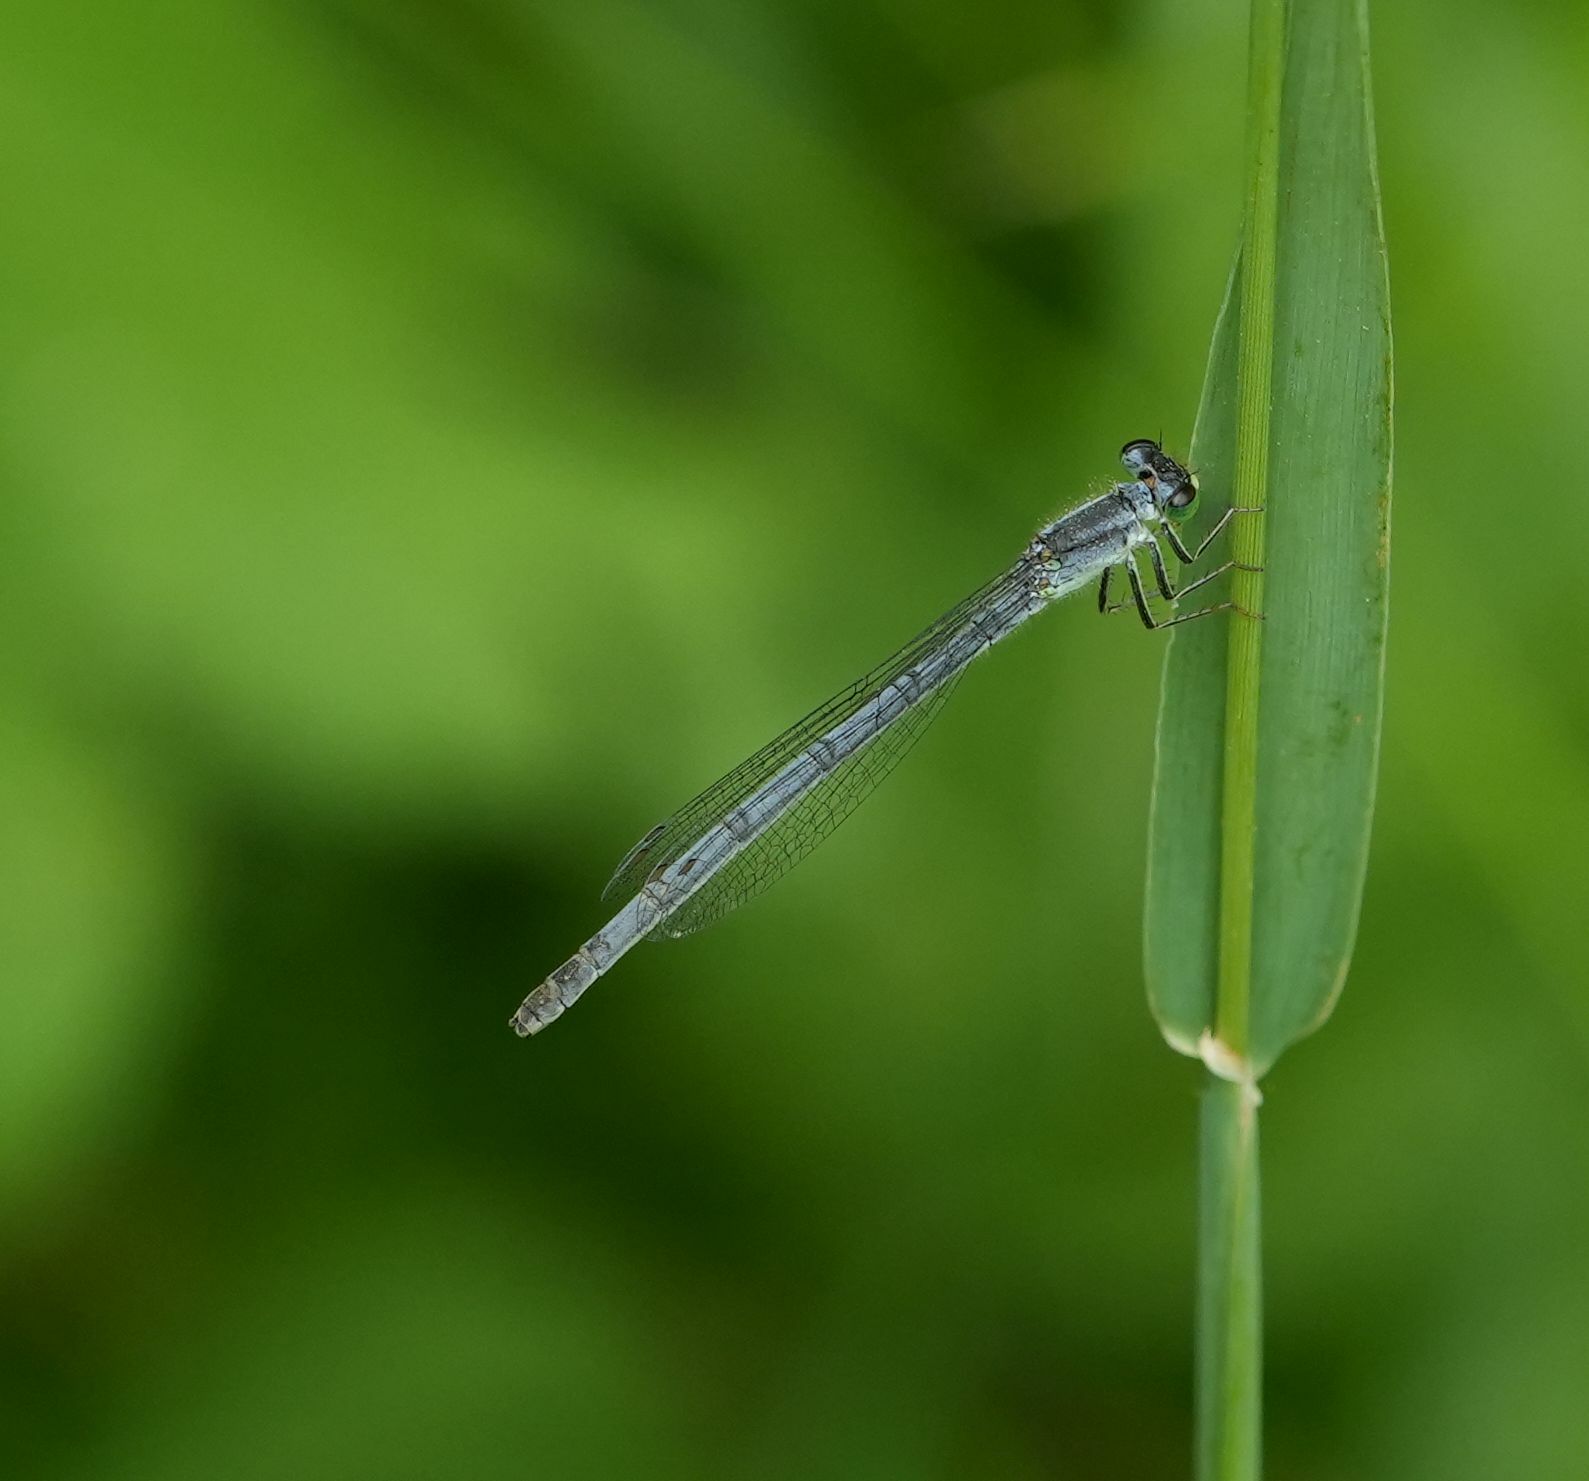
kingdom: Animalia
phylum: Arthropoda
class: Insecta
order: Odonata
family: Coenagrionidae
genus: Ischnura
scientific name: Ischnura verticalis
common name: Eastern forktail
